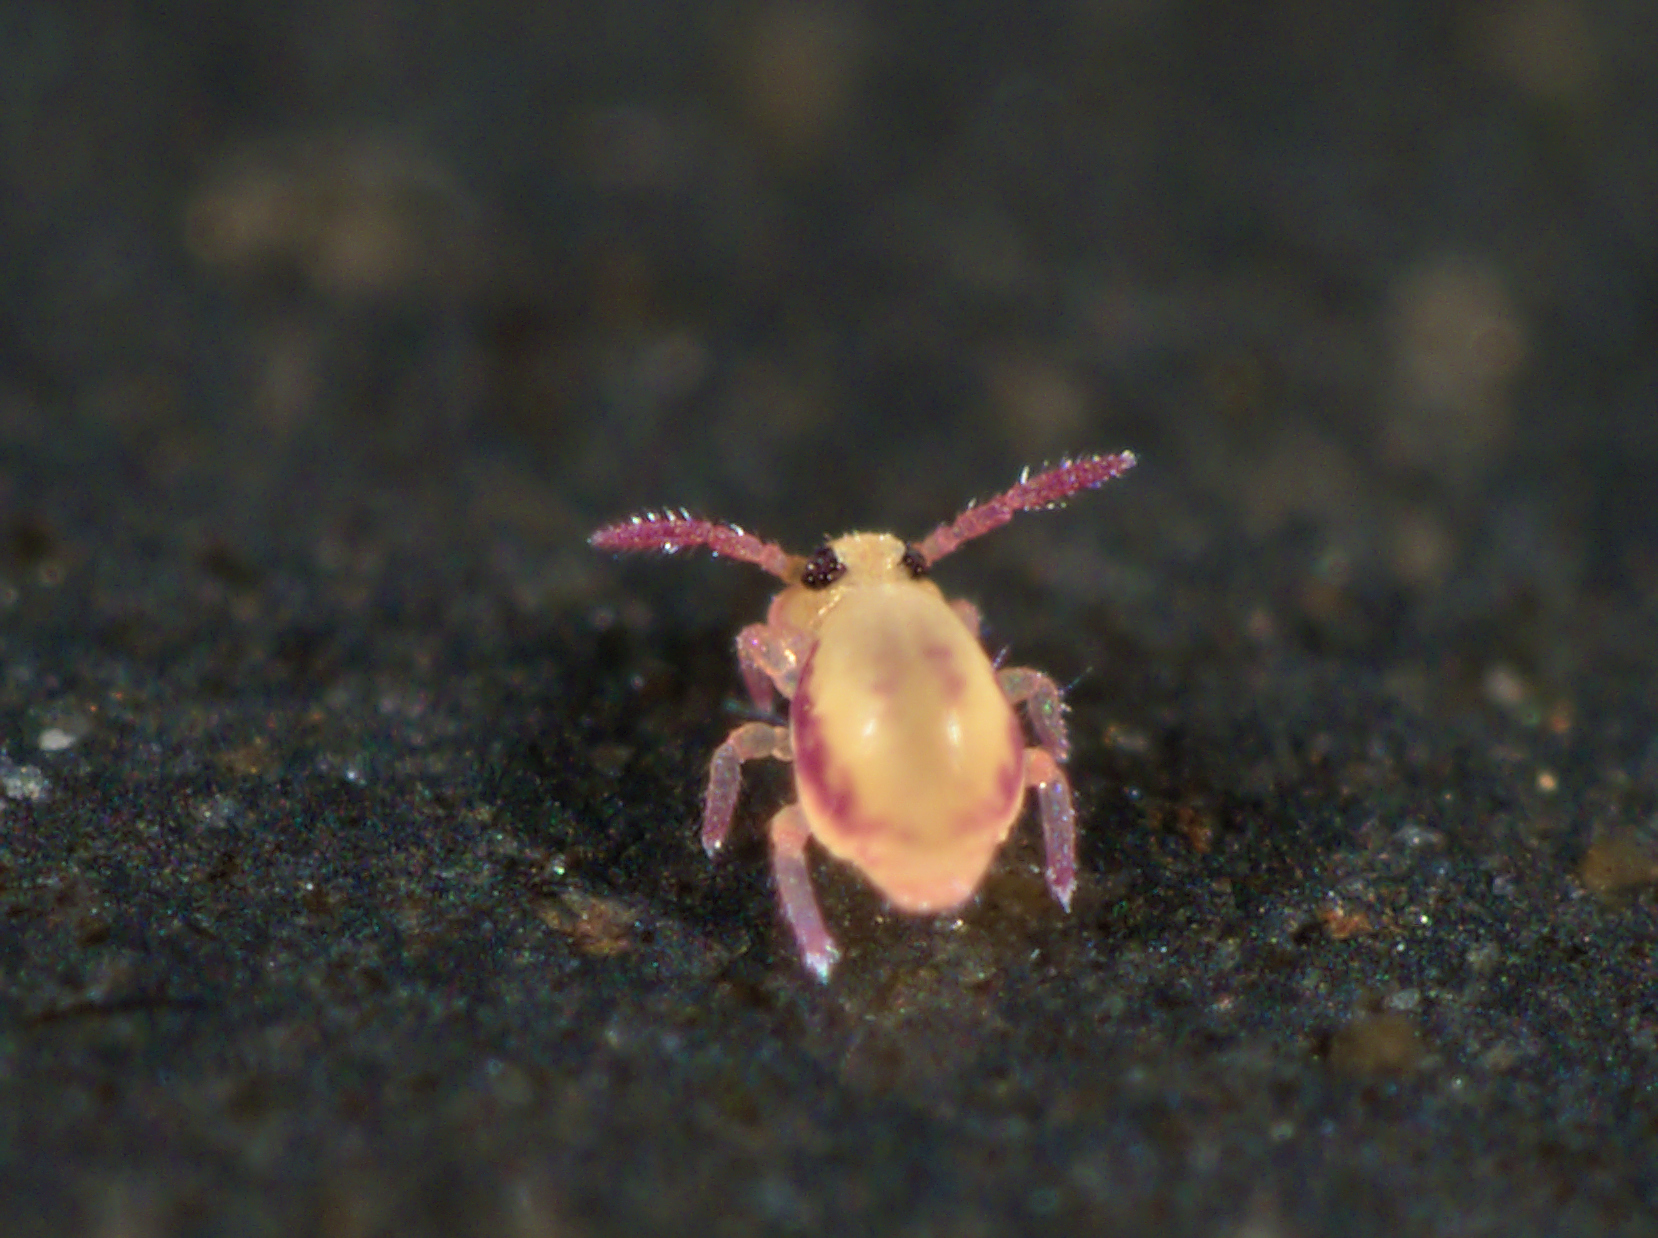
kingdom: Animalia
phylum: Arthropoda
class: Collembola
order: Symphypleona
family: Sminthurididae
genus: Sminthurides
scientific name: Sminthurides malmgreni
